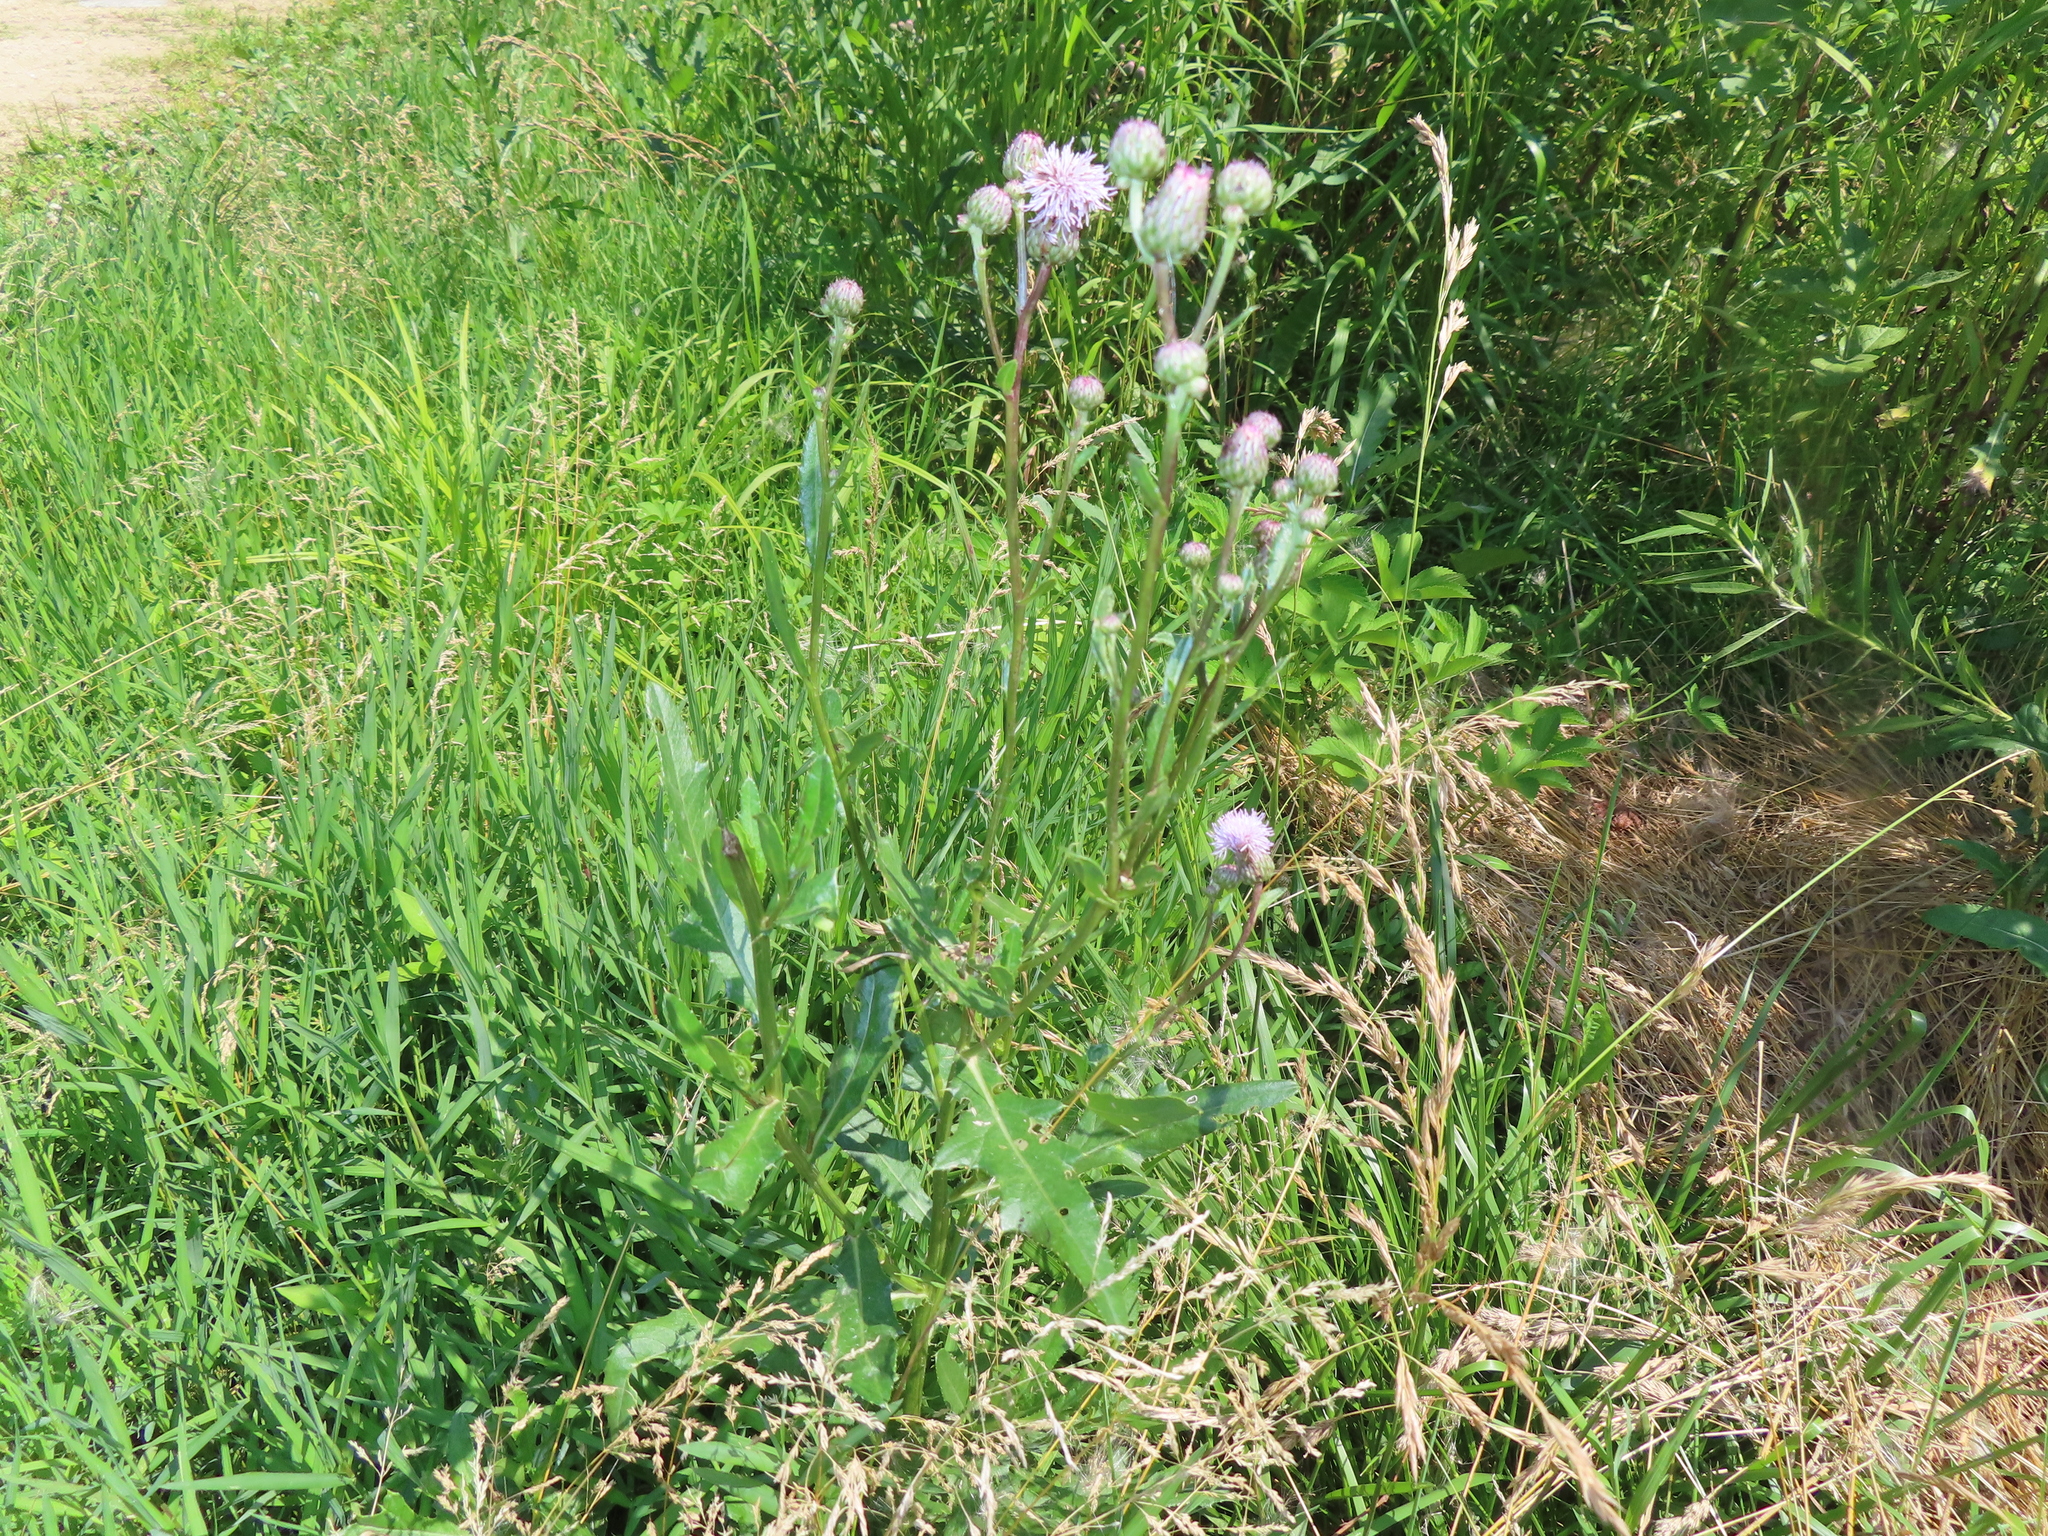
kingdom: Plantae
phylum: Tracheophyta
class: Magnoliopsida
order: Asterales
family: Asteraceae
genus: Cirsium
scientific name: Cirsium arvense
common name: Creeping thistle
